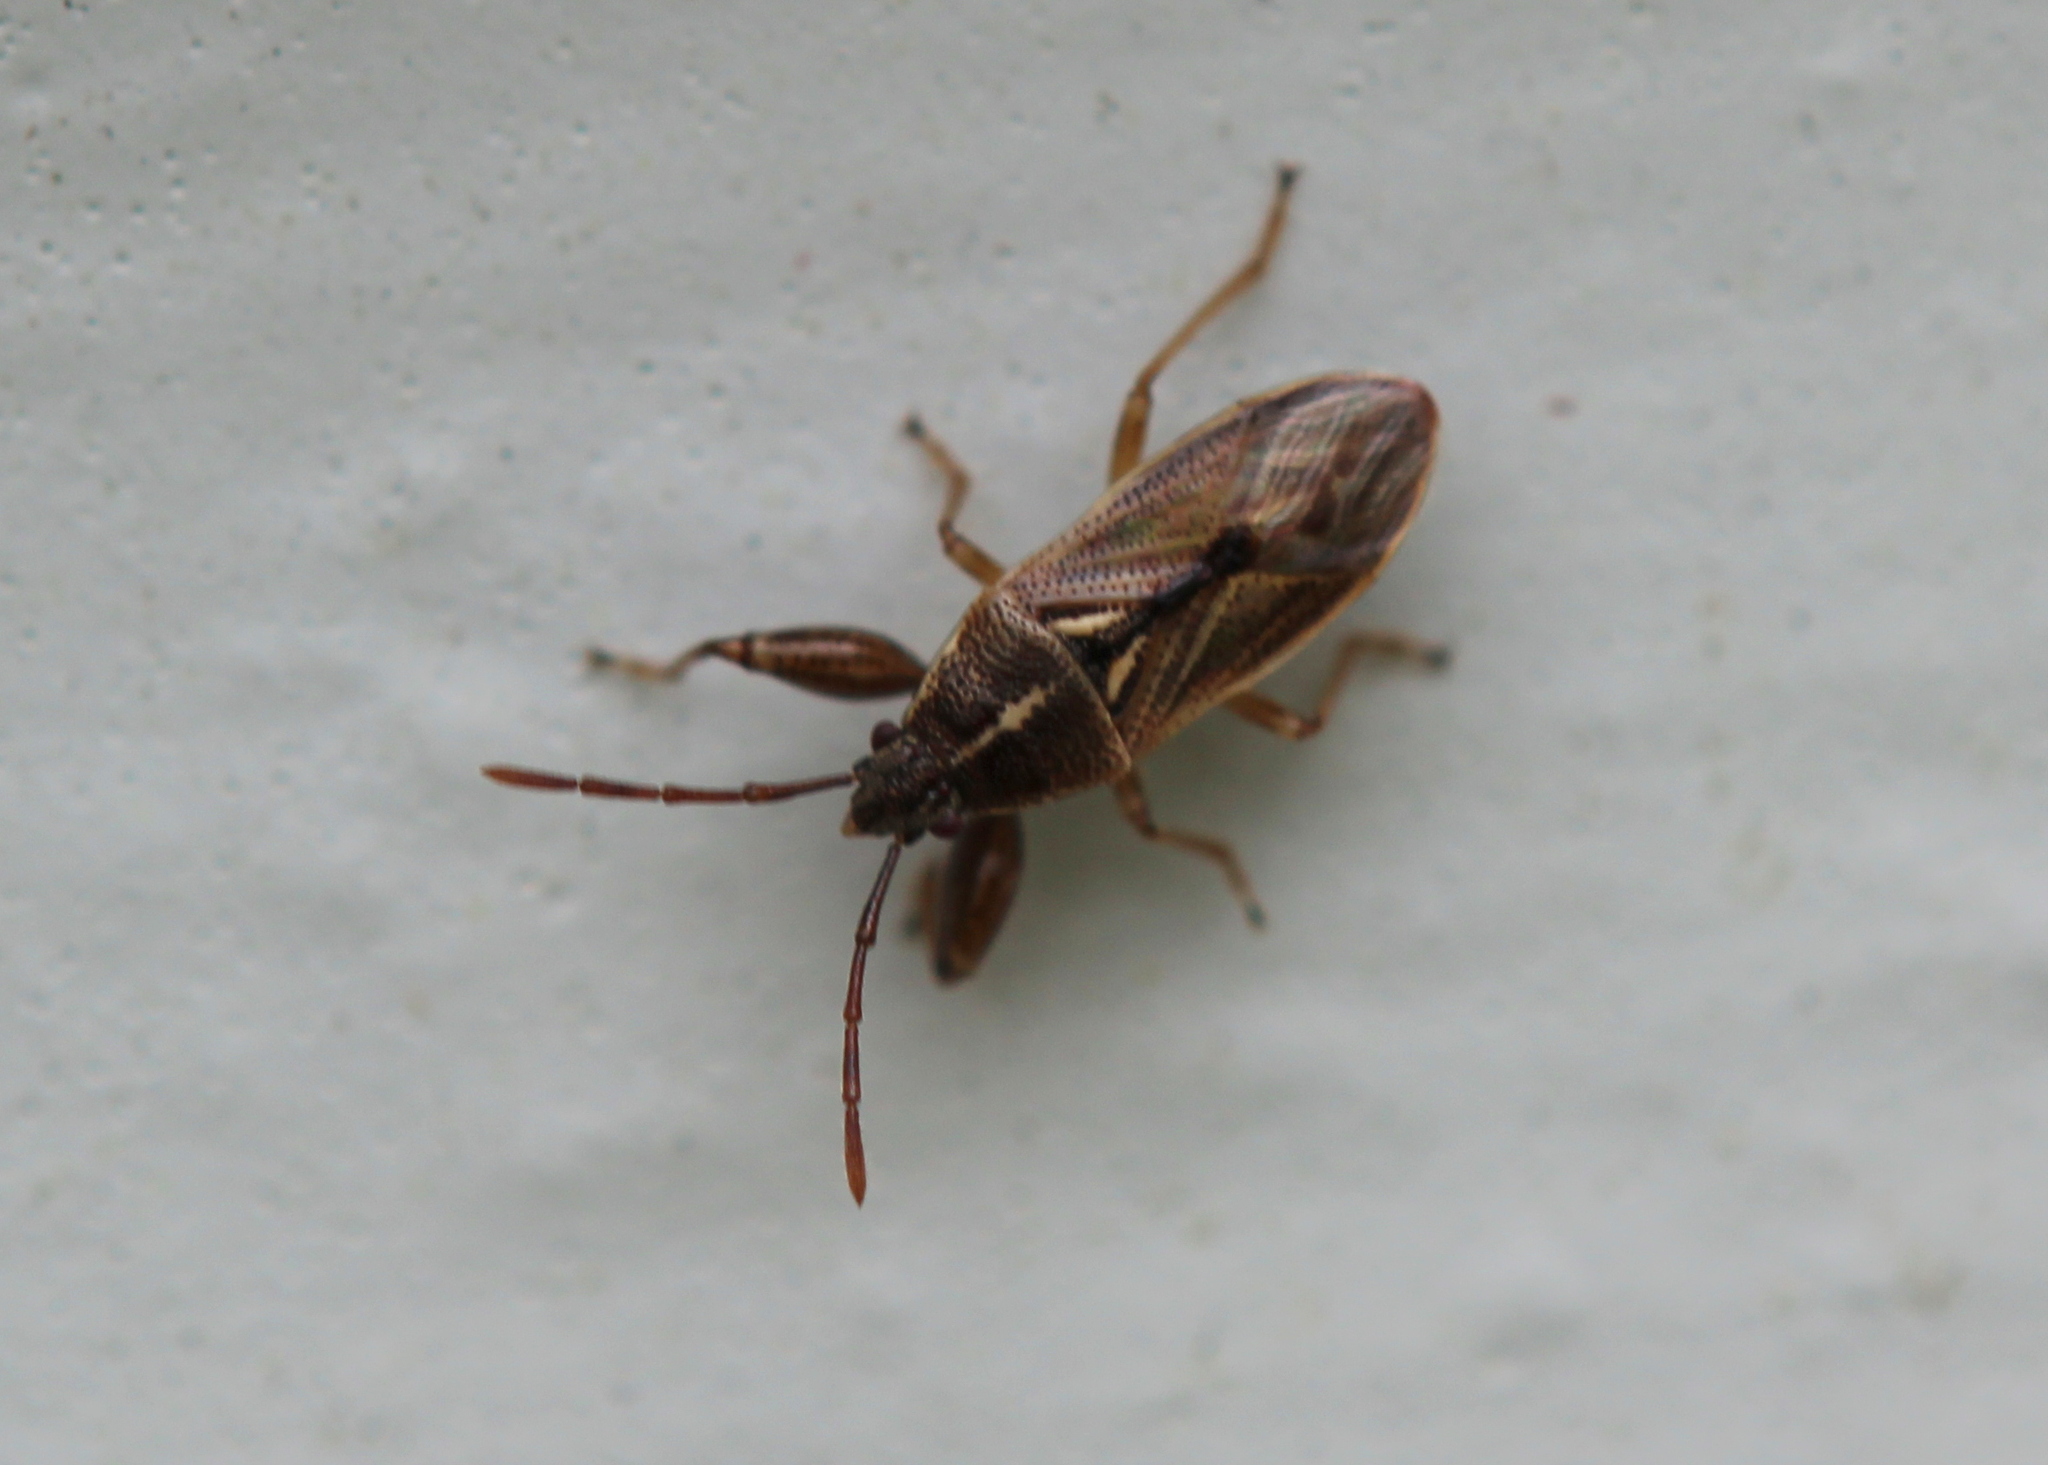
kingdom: Animalia
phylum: Arthropoda
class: Insecta
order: Hemiptera
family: Pachygronthidae
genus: Oedancala
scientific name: Oedancala dorsalis
